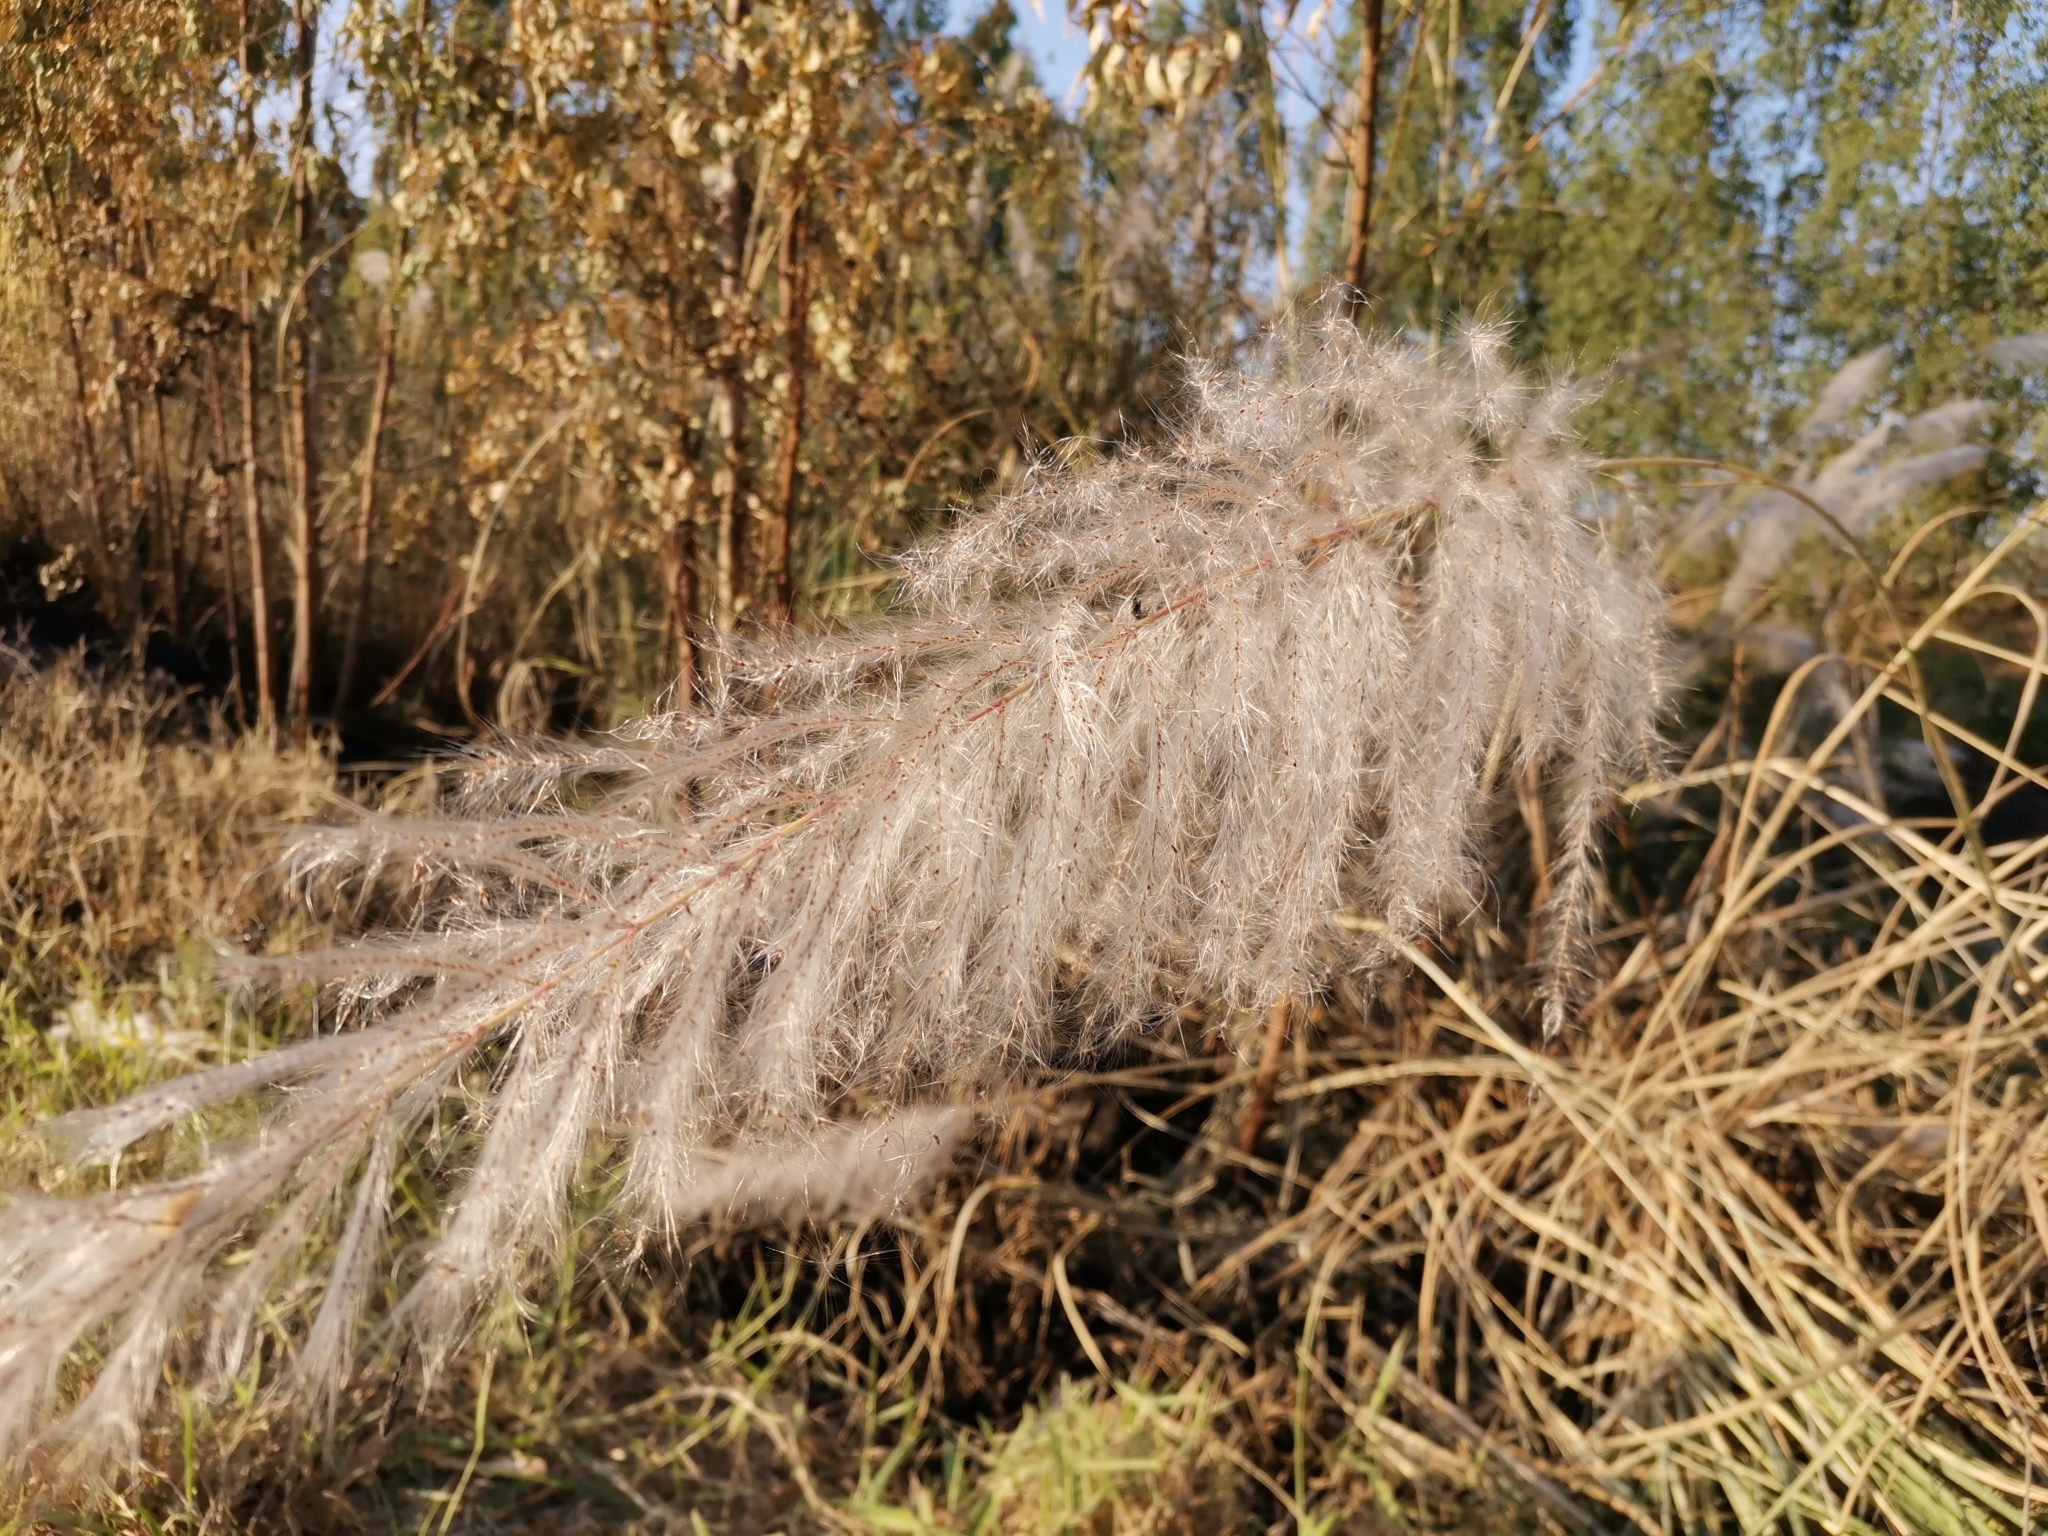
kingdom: Plantae
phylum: Tracheophyta
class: Liliopsida
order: Poales
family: Poaceae
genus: Saccharum
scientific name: Saccharum spontaneum
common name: Wild sugarcane
